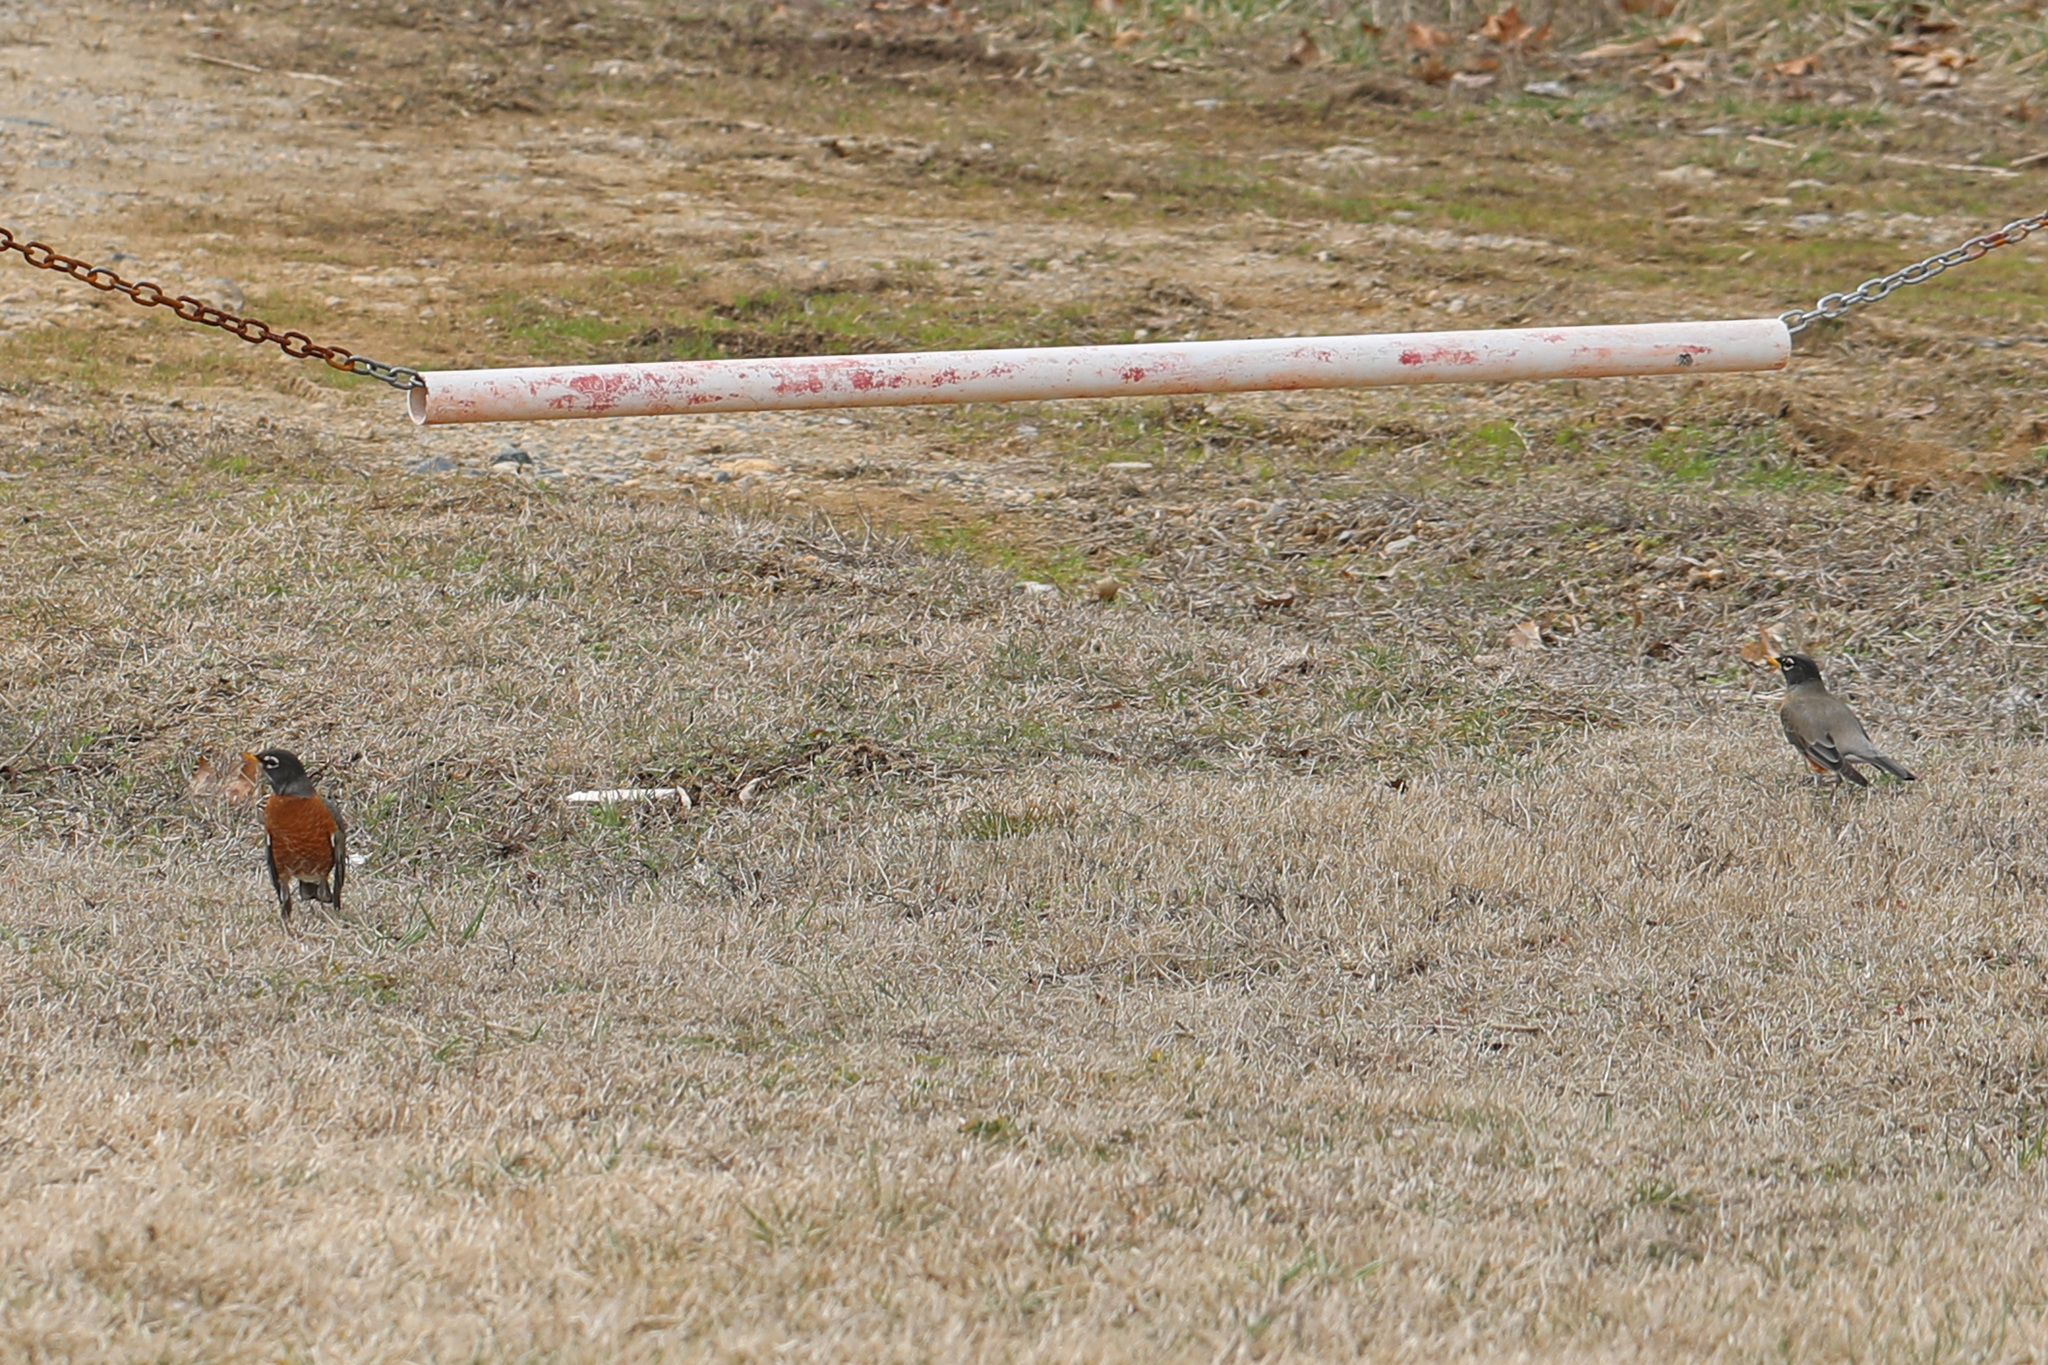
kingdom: Animalia
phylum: Chordata
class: Aves
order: Passeriformes
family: Turdidae
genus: Turdus
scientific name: Turdus migratorius
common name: American robin
